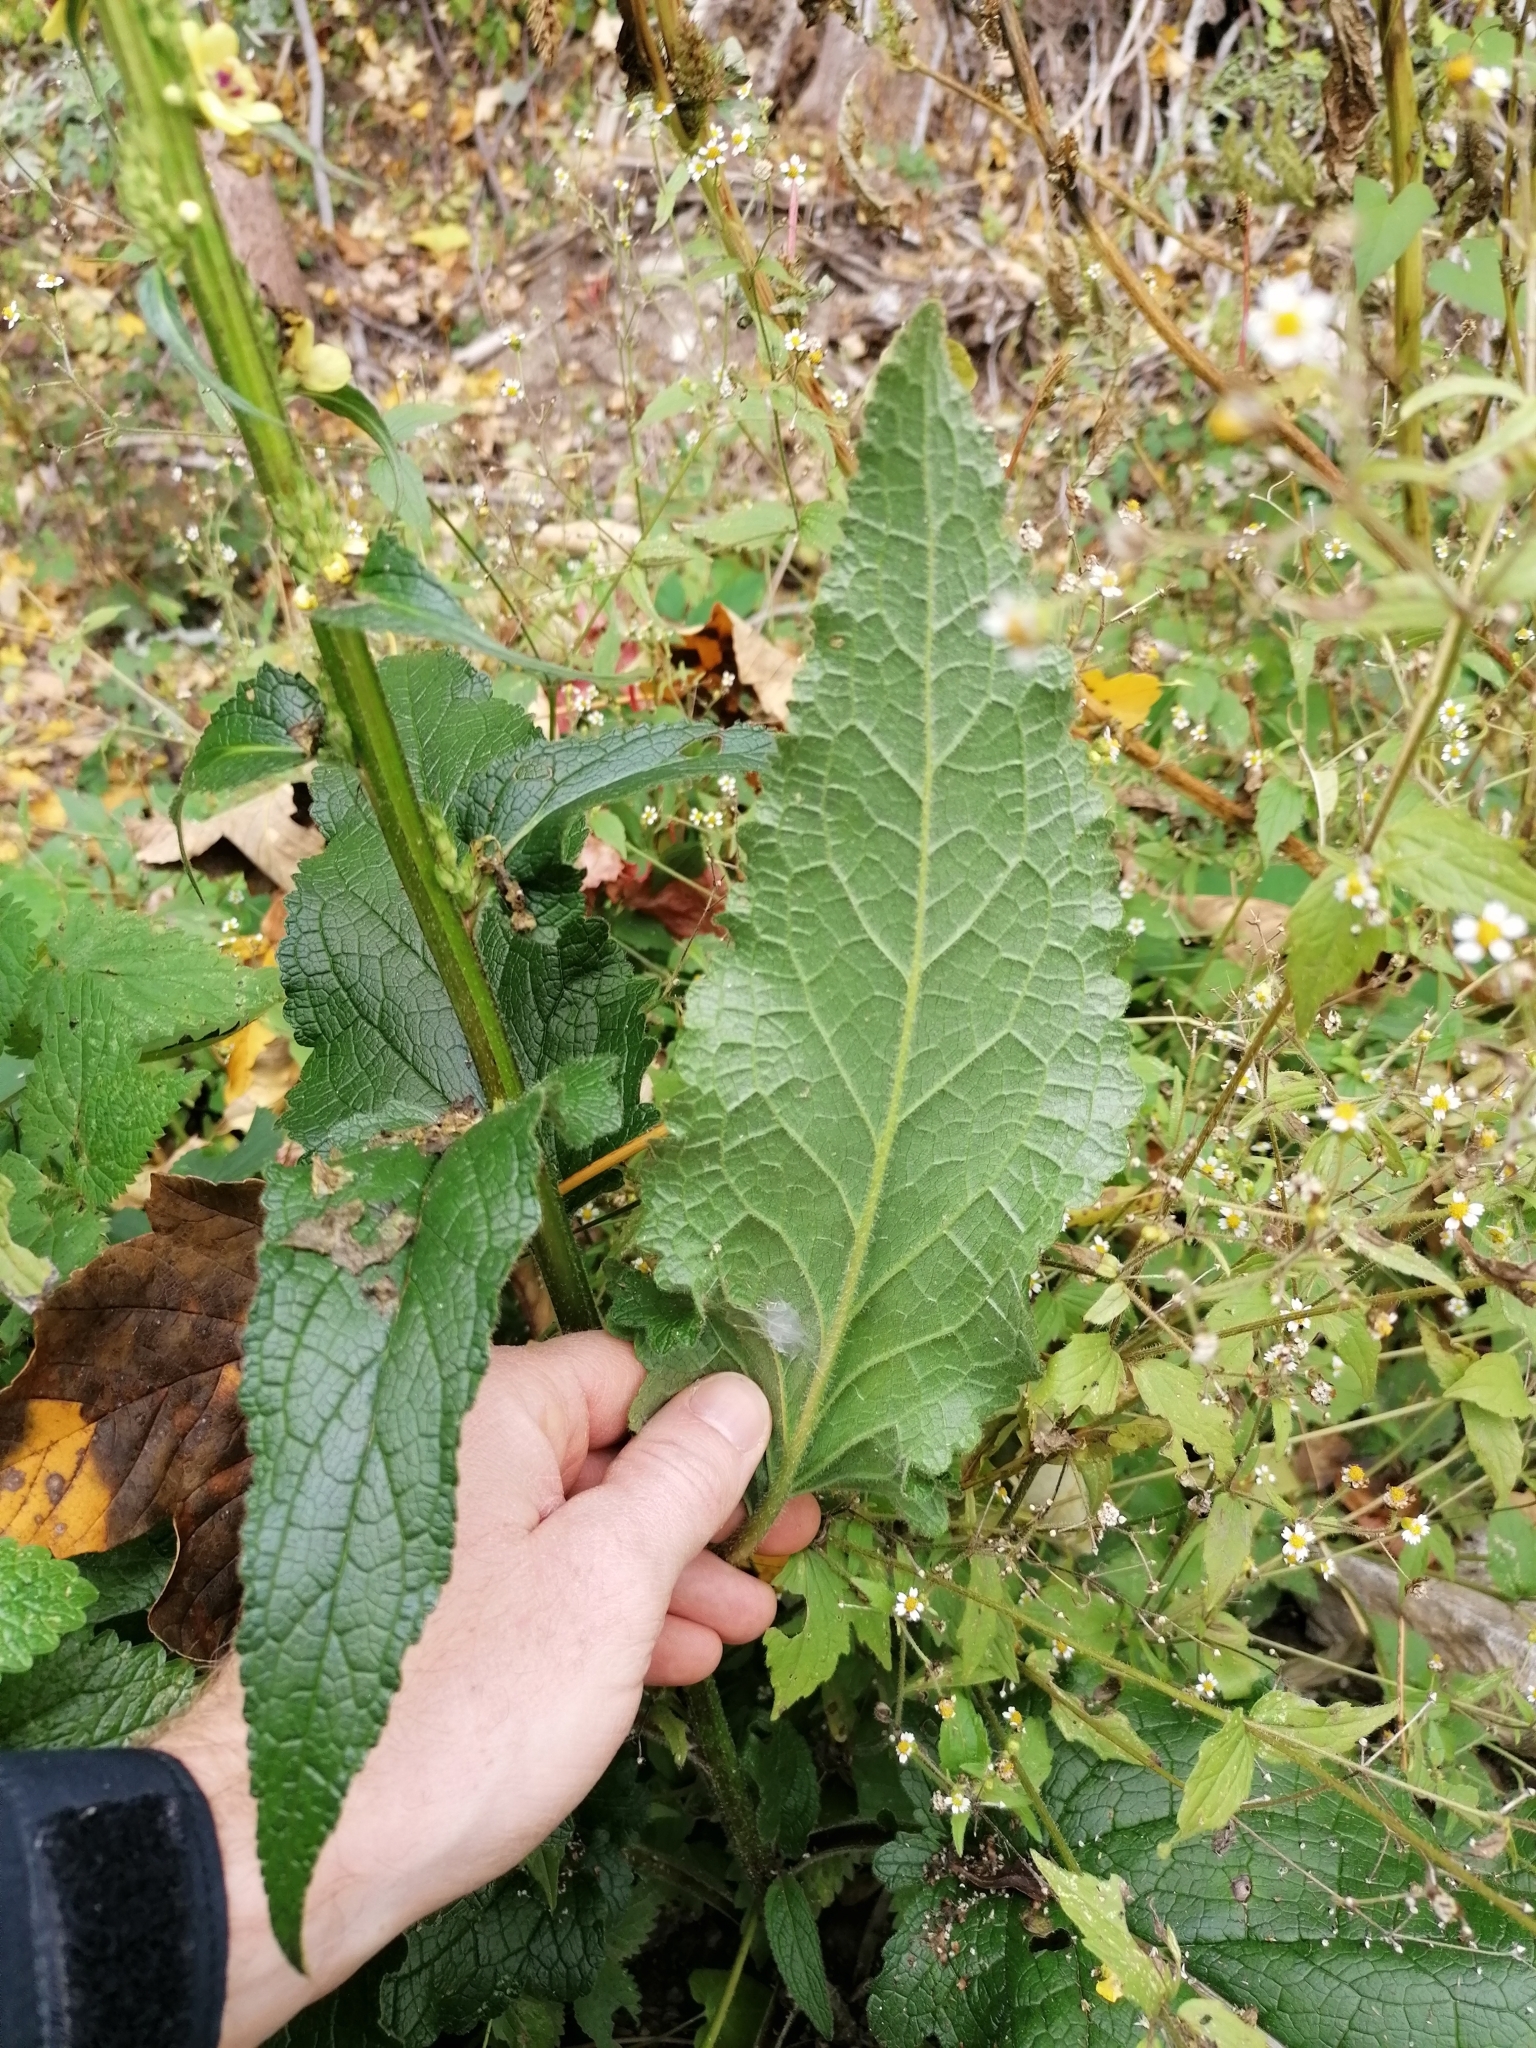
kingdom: Plantae
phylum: Tracheophyta
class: Magnoliopsida
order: Lamiales
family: Scrophulariaceae
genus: Verbascum
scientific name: Verbascum nigrum
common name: Dark mullein
